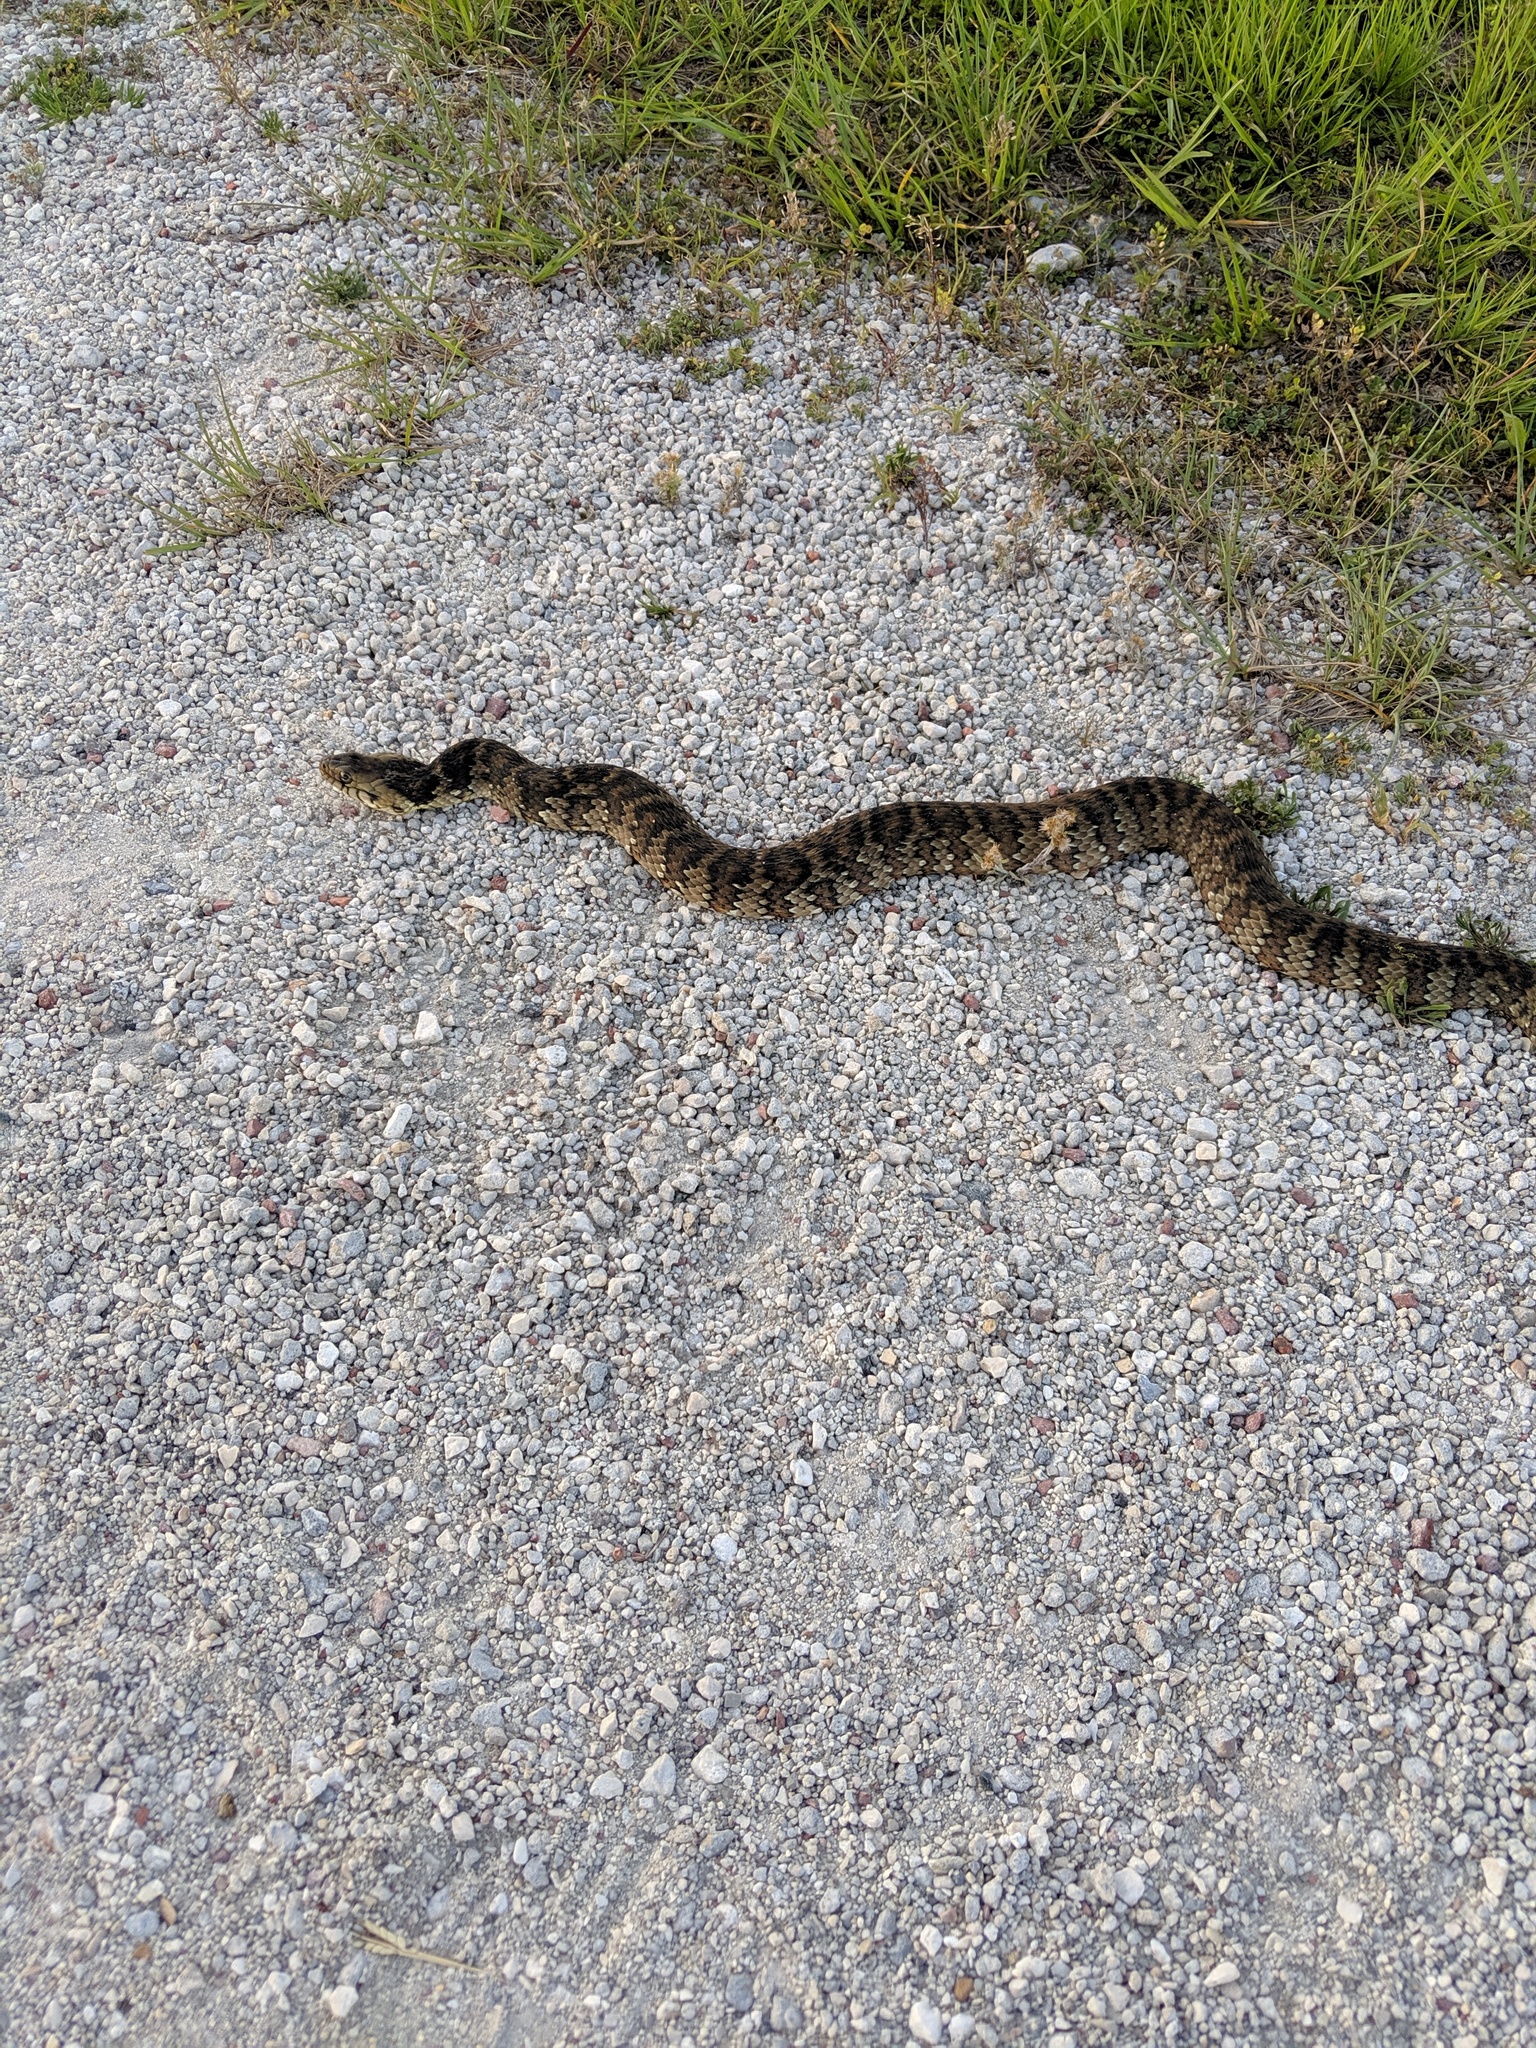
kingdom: Animalia
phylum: Chordata
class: Squamata
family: Colubridae
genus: Nerodia
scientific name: Nerodia fasciata
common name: Southern water snake
